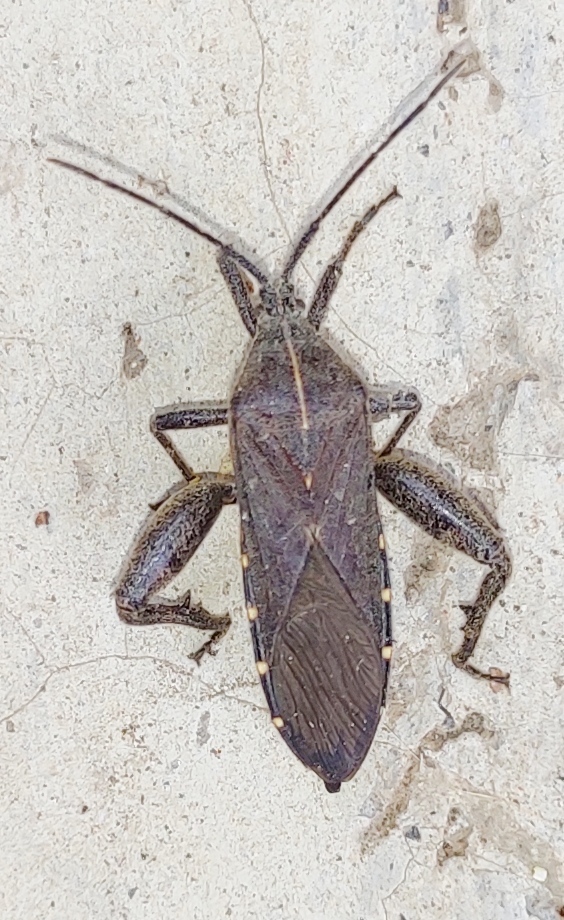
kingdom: Animalia
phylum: Arthropoda
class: Insecta
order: Hemiptera
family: Coreidae
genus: Physomerus
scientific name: Physomerus centralis
